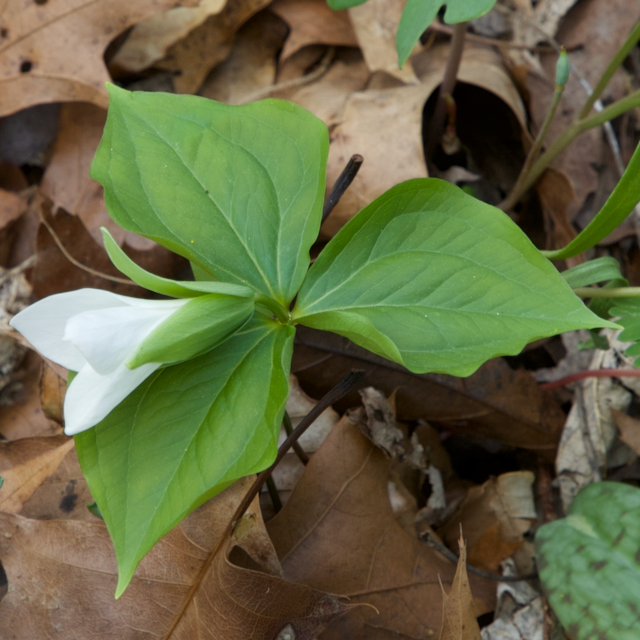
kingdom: Plantae
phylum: Tracheophyta
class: Liliopsida
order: Liliales
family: Melanthiaceae
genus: Trillium
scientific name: Trillium grandiflorum
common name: Great white trillium
